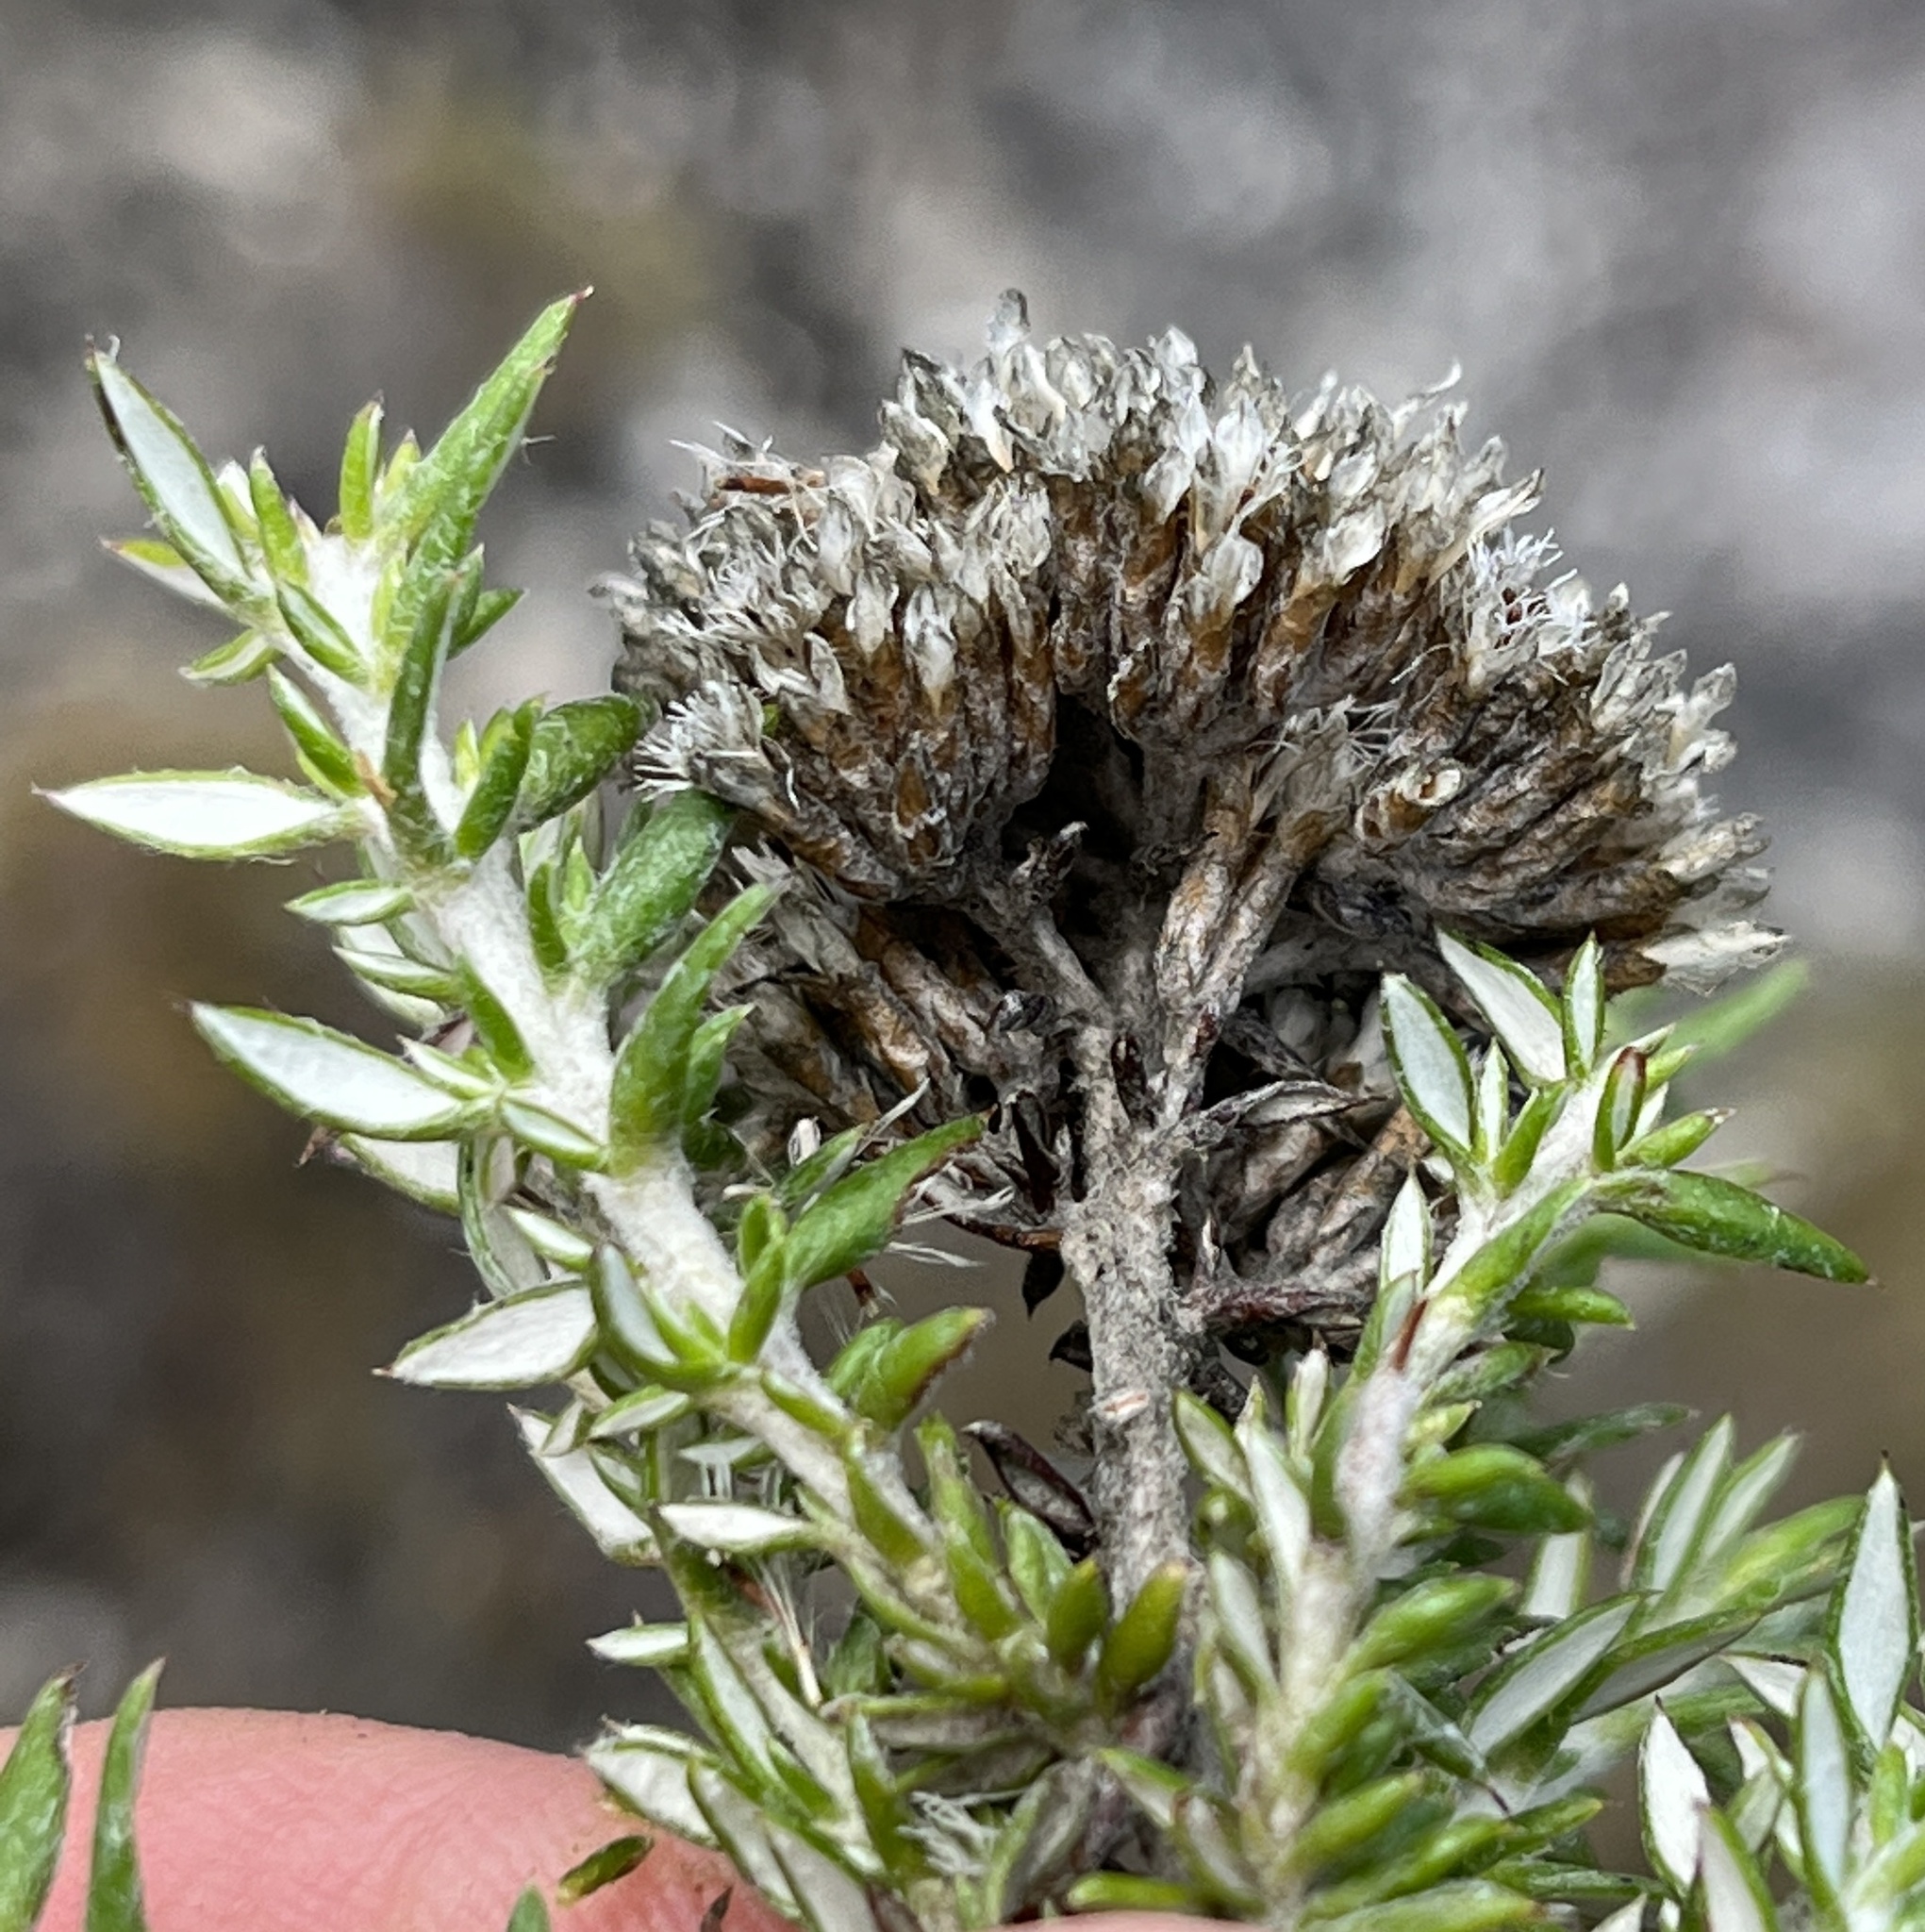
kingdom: Plantae
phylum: Tracheophyta
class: Magnoliopsida
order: Asterales
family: Asteraceae
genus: Metalasia
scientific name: Metalasia densa
